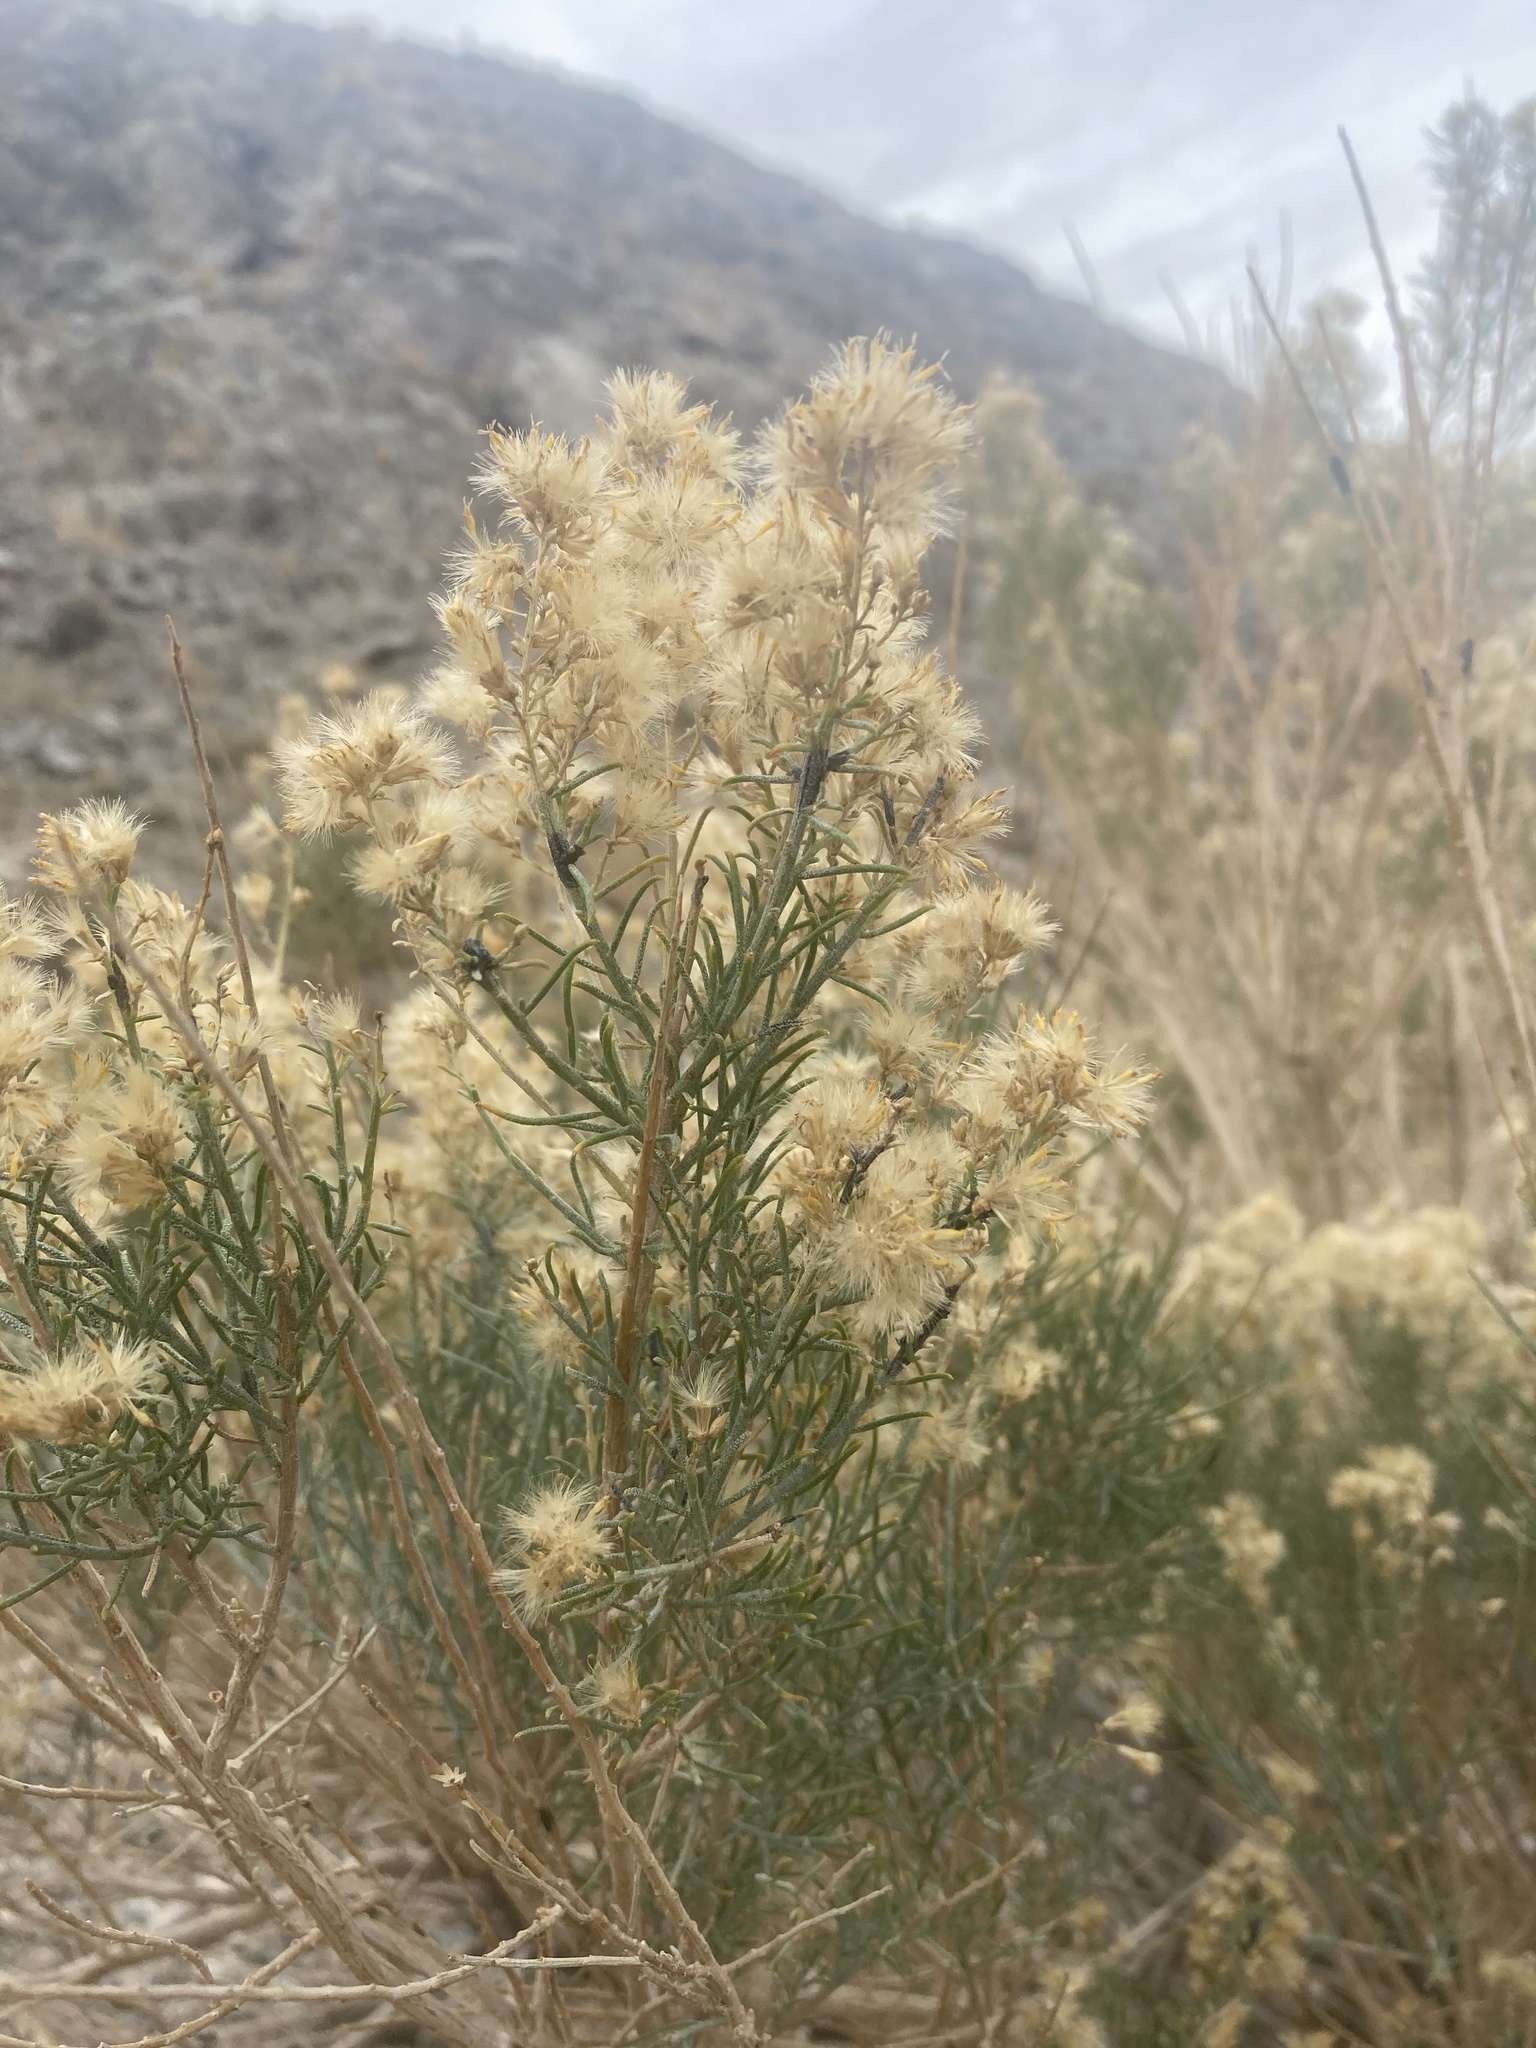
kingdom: Plantae
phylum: Tracheophyta
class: Magnoliopsida
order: Asterales
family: Asteraceae
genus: Ericameria
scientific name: Ericameria paniculata
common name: Punctate rabbitbrush
